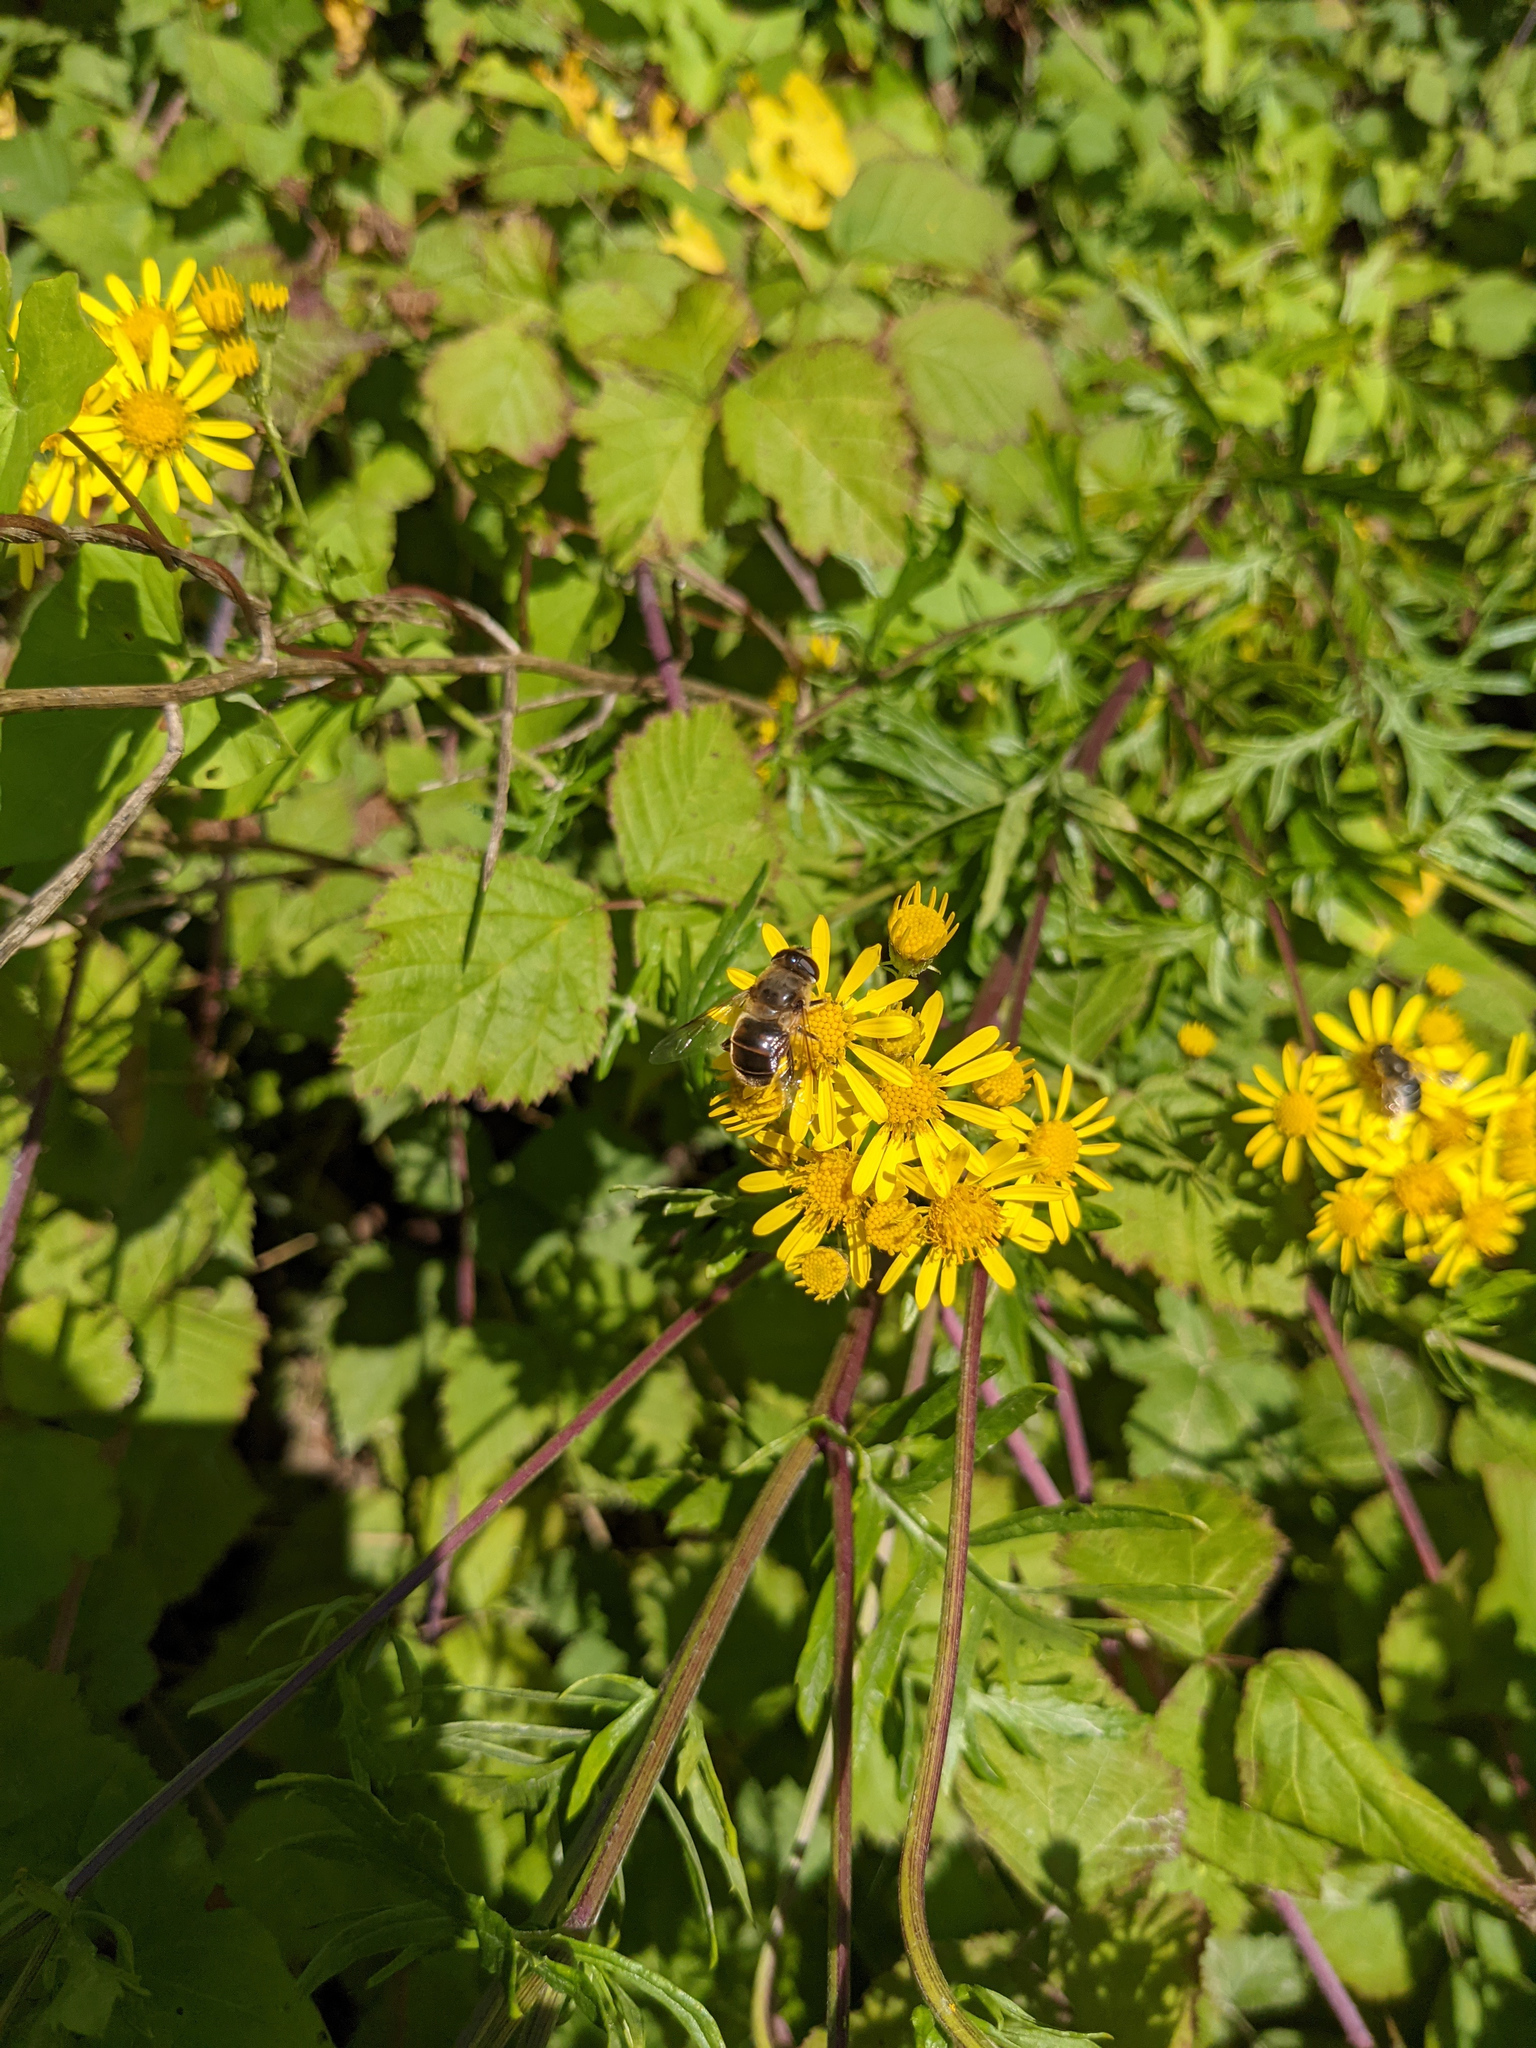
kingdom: Animalia
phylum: Arthropoda
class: Insecta
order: Diptera
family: Syrphidae
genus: Eristalis
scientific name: Eristalis tenax
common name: Drone fly
